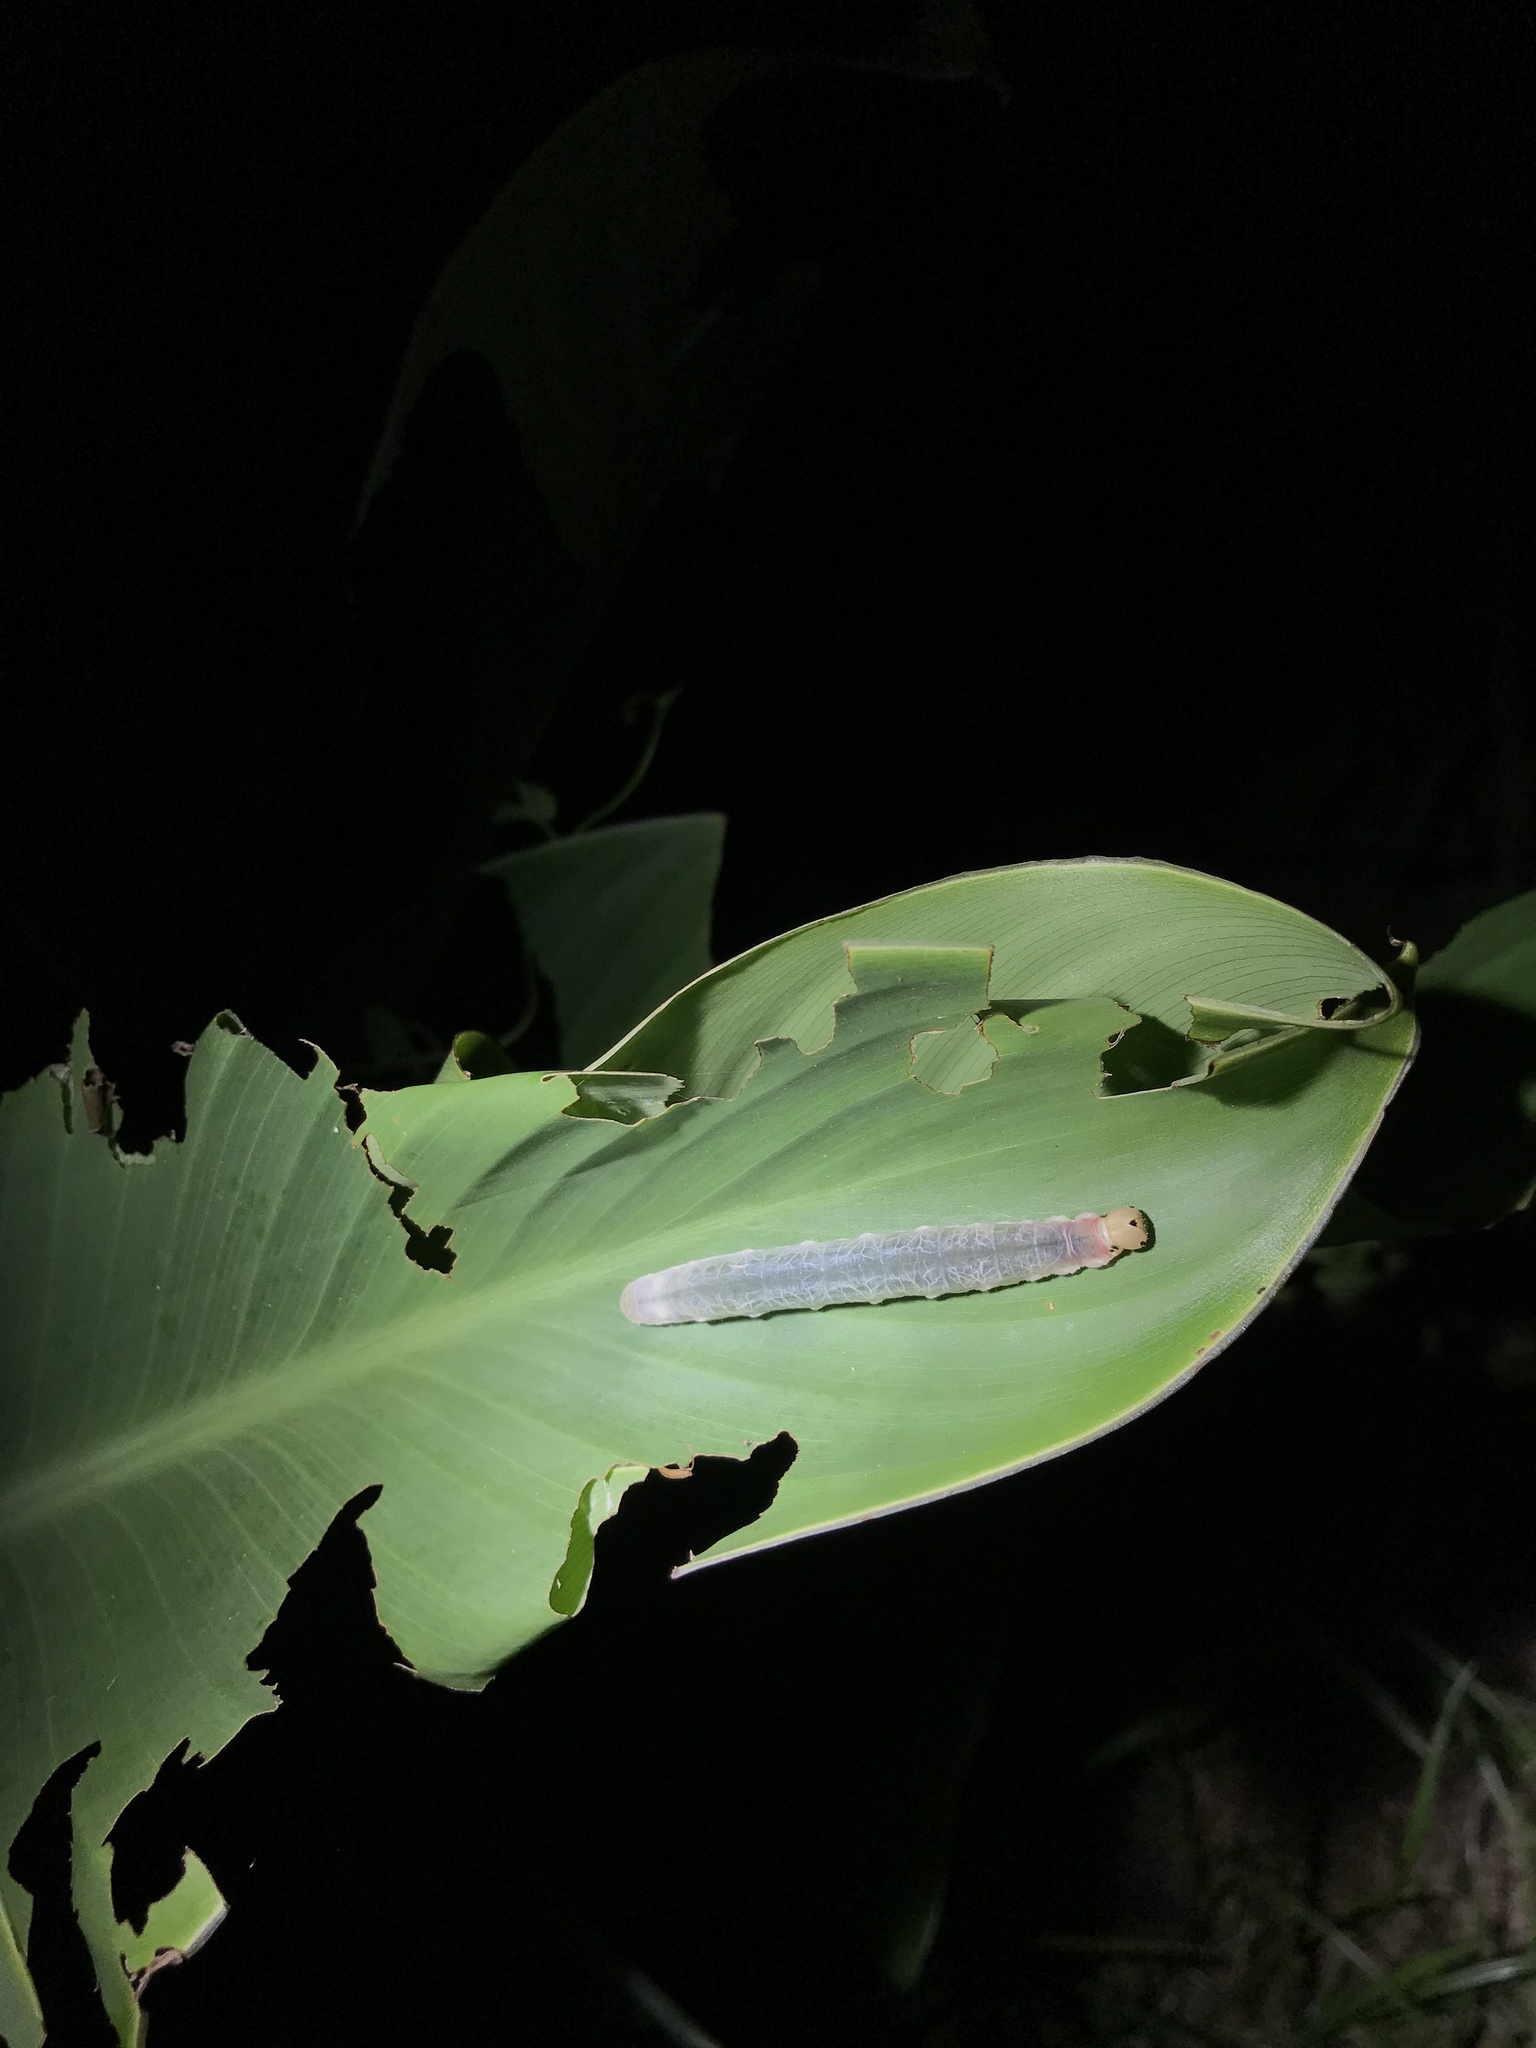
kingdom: Animalia
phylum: Arthropoda
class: Insecta
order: Lepidoptera
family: Hesperiidae
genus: Calpodes
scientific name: Calpodes ethlius
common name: Brazilian skipper
